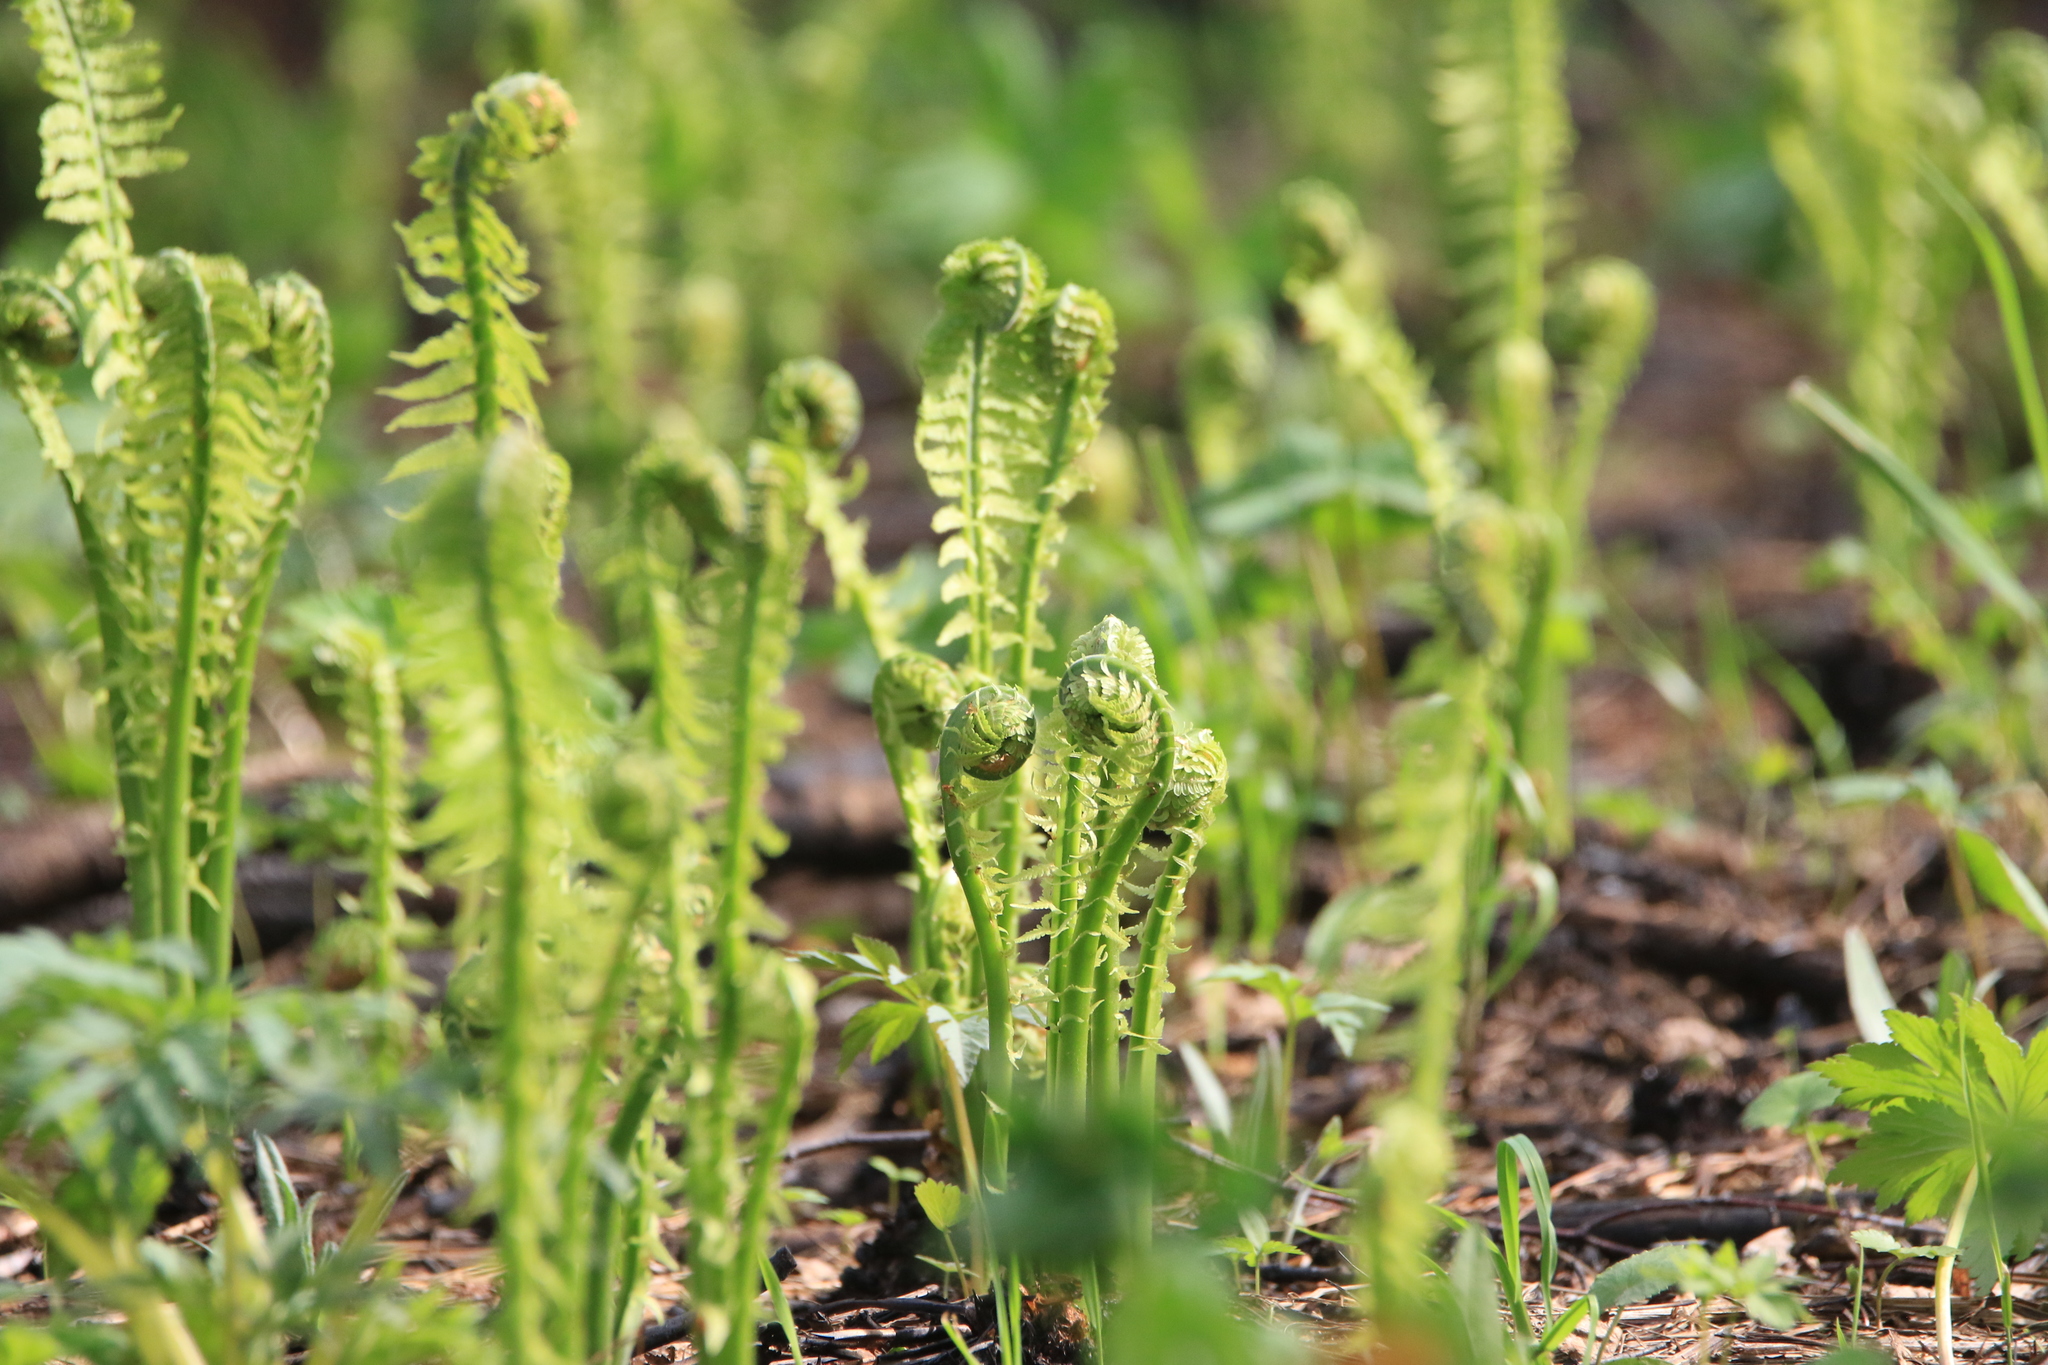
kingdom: Plantae
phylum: Tracheophyta
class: Polypodiopsida
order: Polypodiales
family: Onocleaceae
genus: Matteuccia
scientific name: Matteuccia struthiopteris
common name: Ostrich fern
